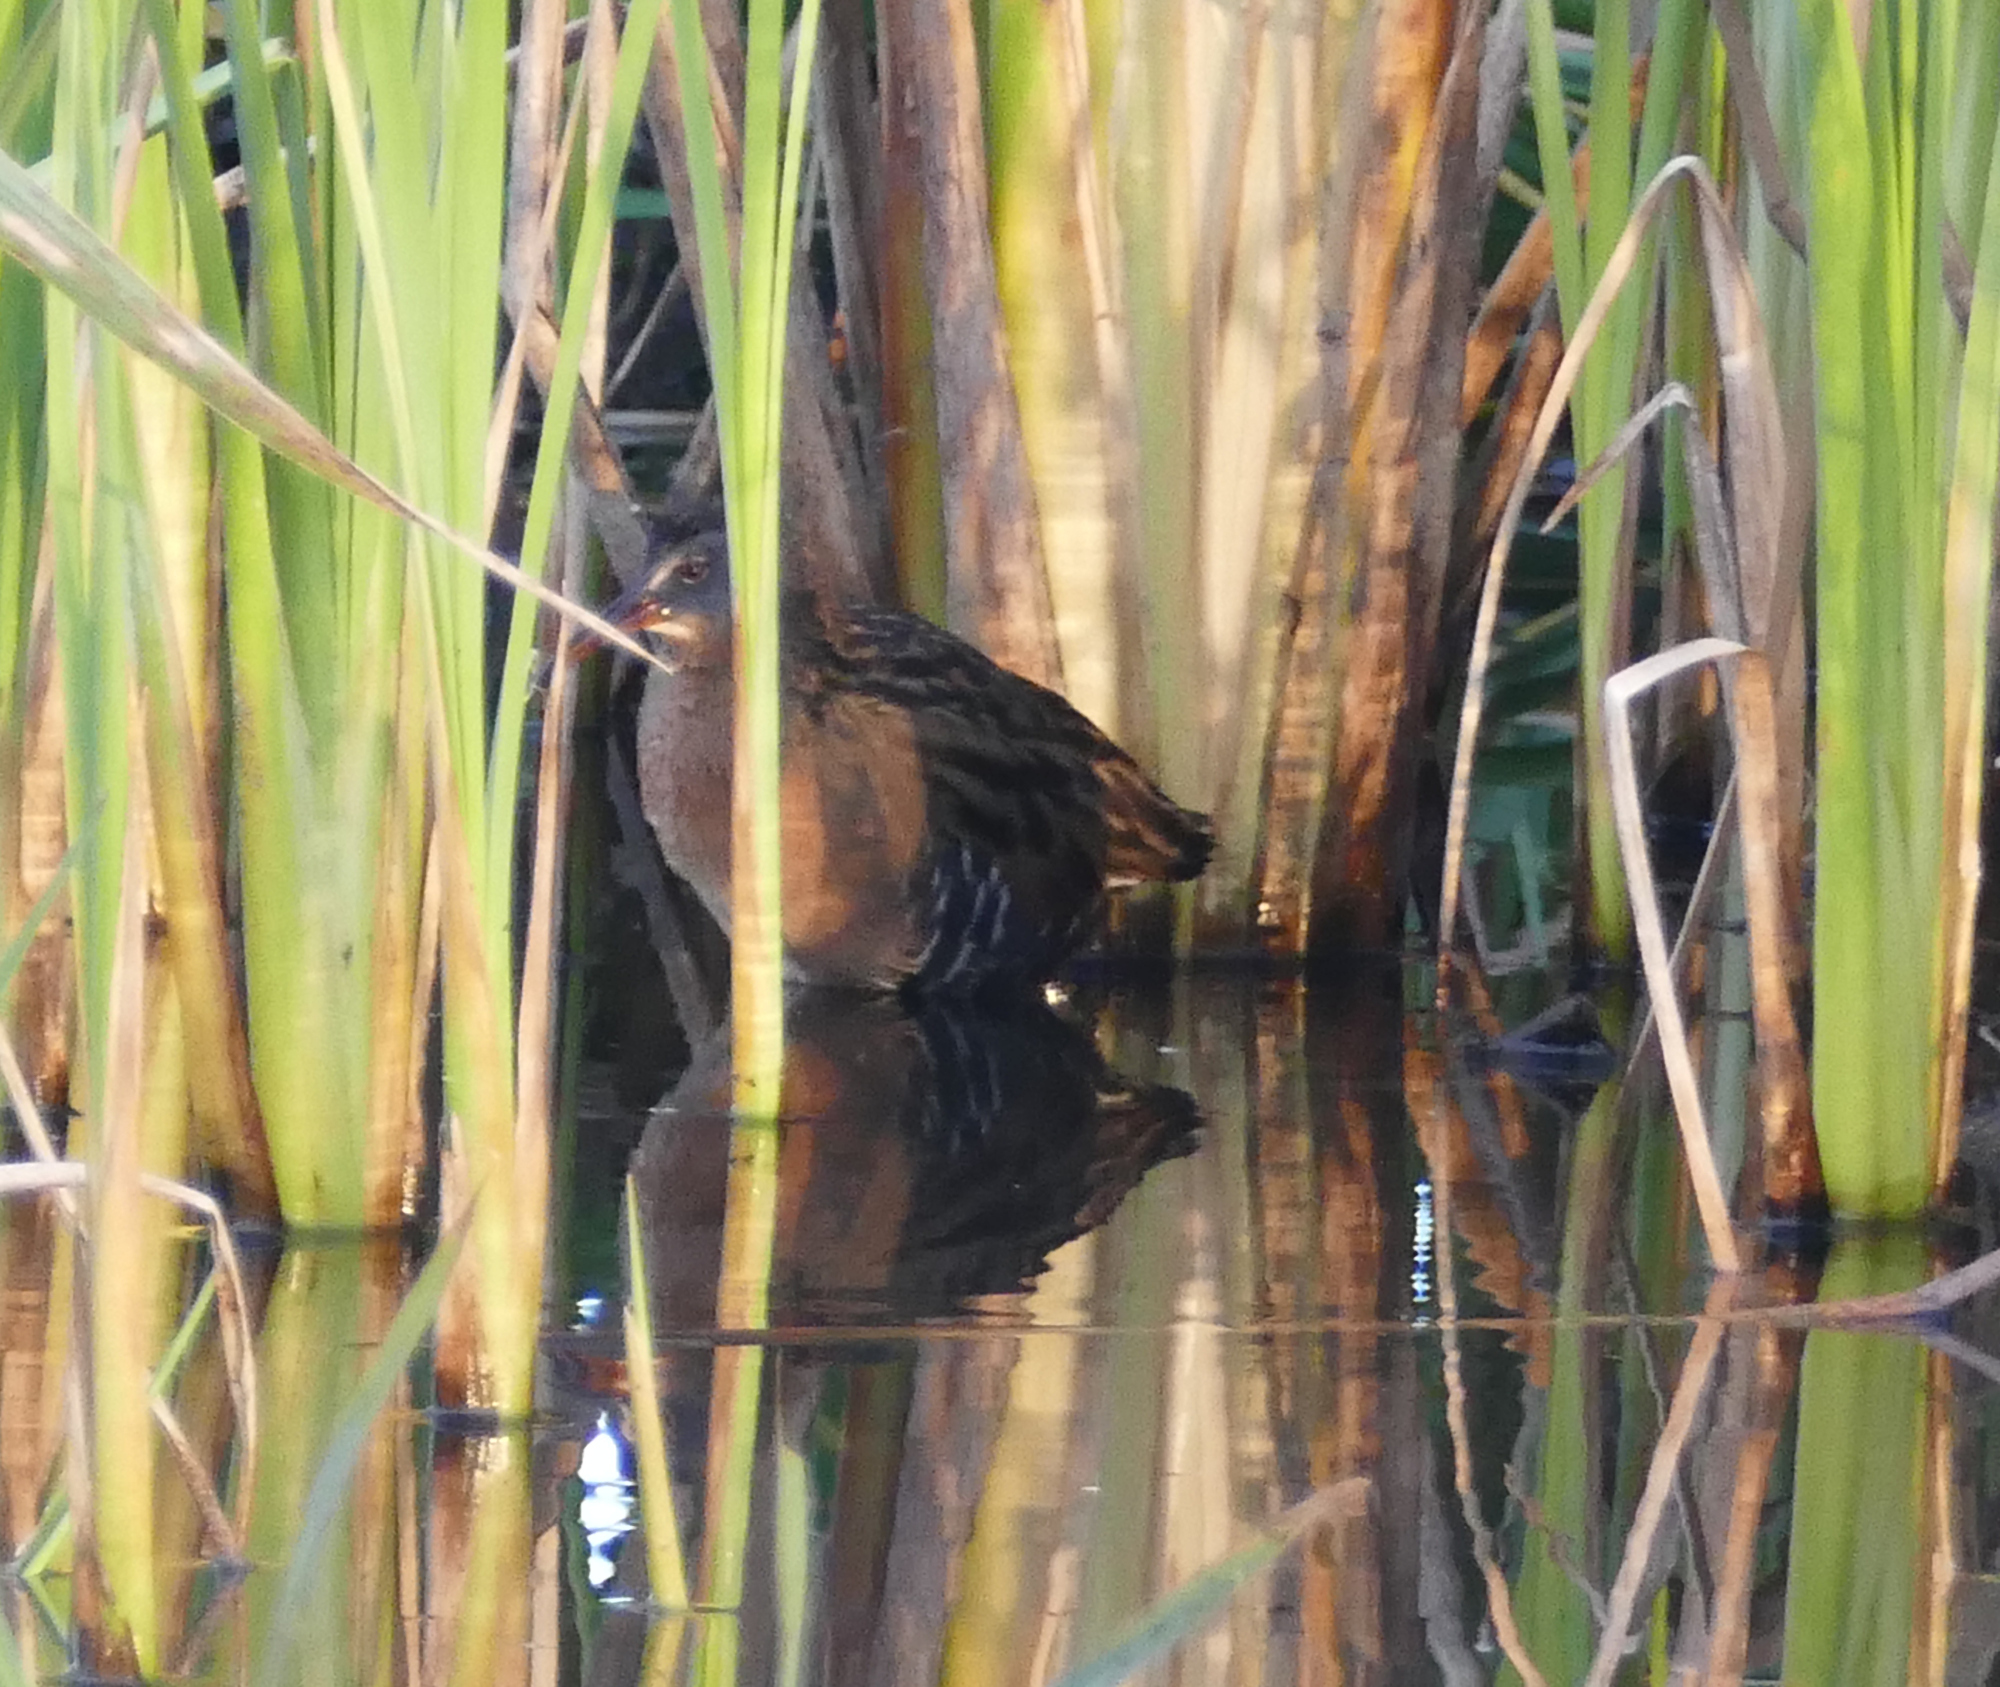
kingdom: Animalia
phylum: Chordata
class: Aves
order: Gruiformes
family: Rallidae
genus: Rallus
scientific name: Rallus limicola
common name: Virginia rail
